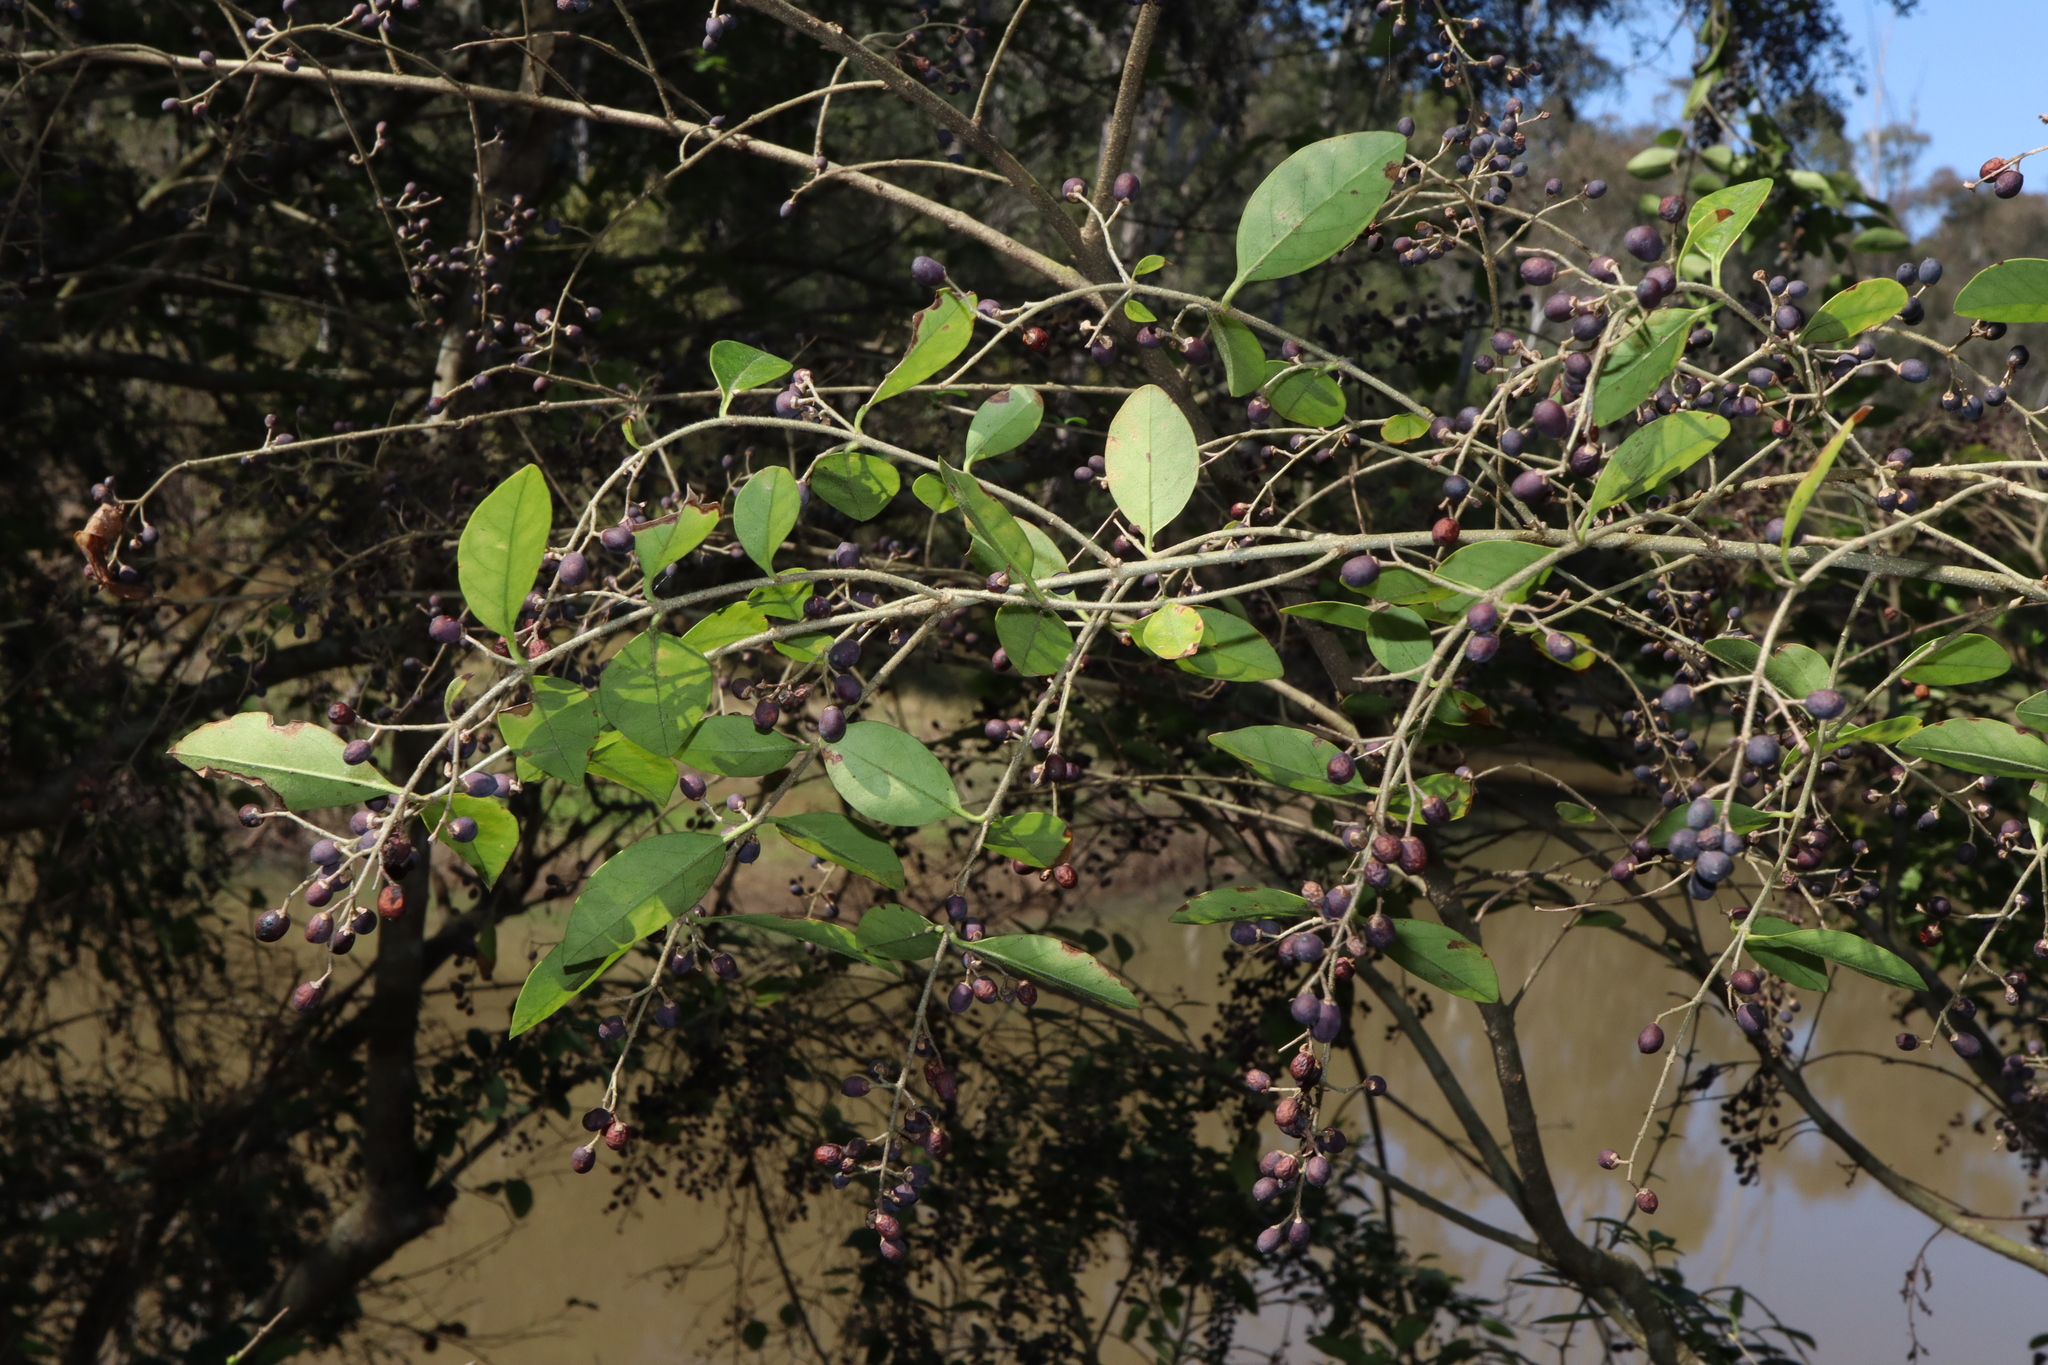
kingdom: Plantae
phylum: Tracheophyta
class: Magnoliopsida
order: Lamiales
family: Oleaceae
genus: Ligustrum
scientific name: Ligustrum sinense
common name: Chinese privet
